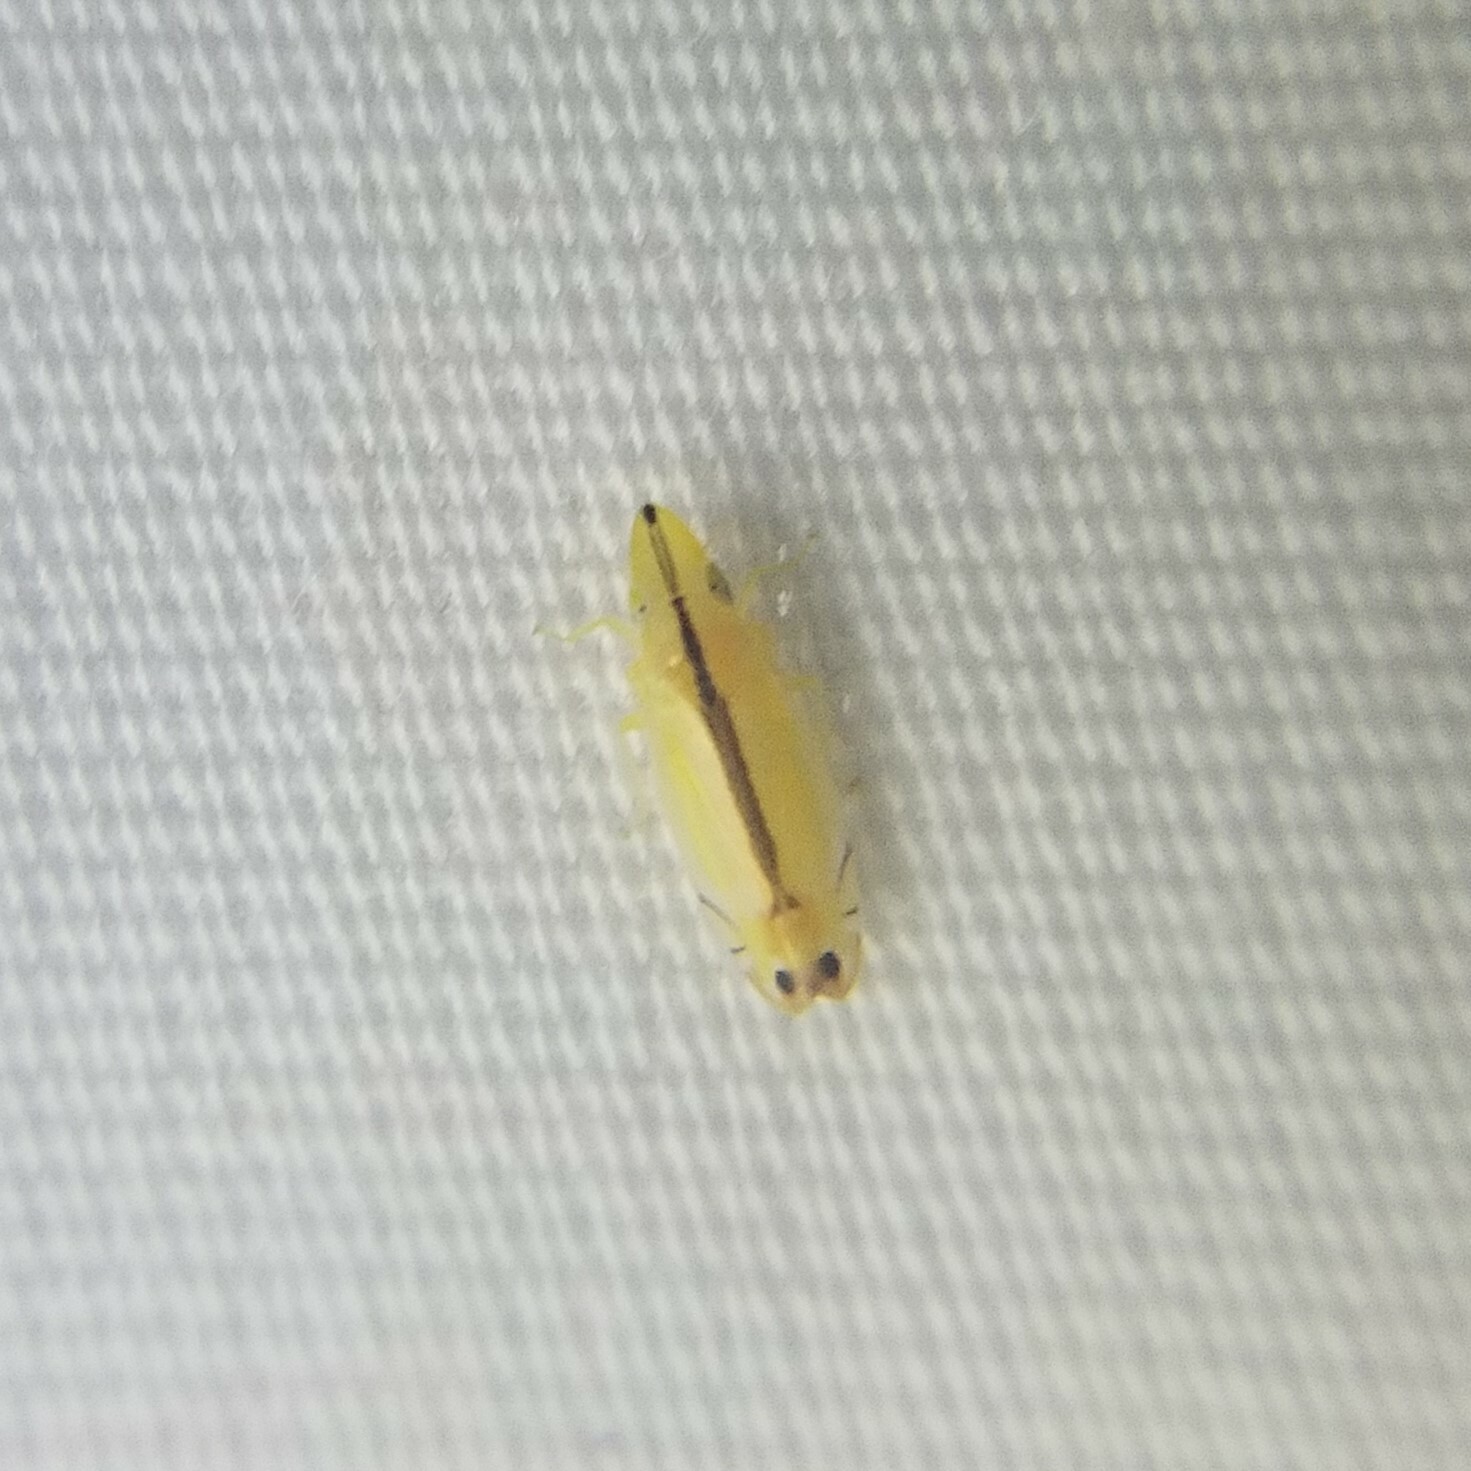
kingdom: Animalia
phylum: Arthropoda
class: Insecta
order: Hemiptera
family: Cicadellidae
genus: Sophonia
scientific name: Sophonia orientalis
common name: Two-spotted leafhopper
